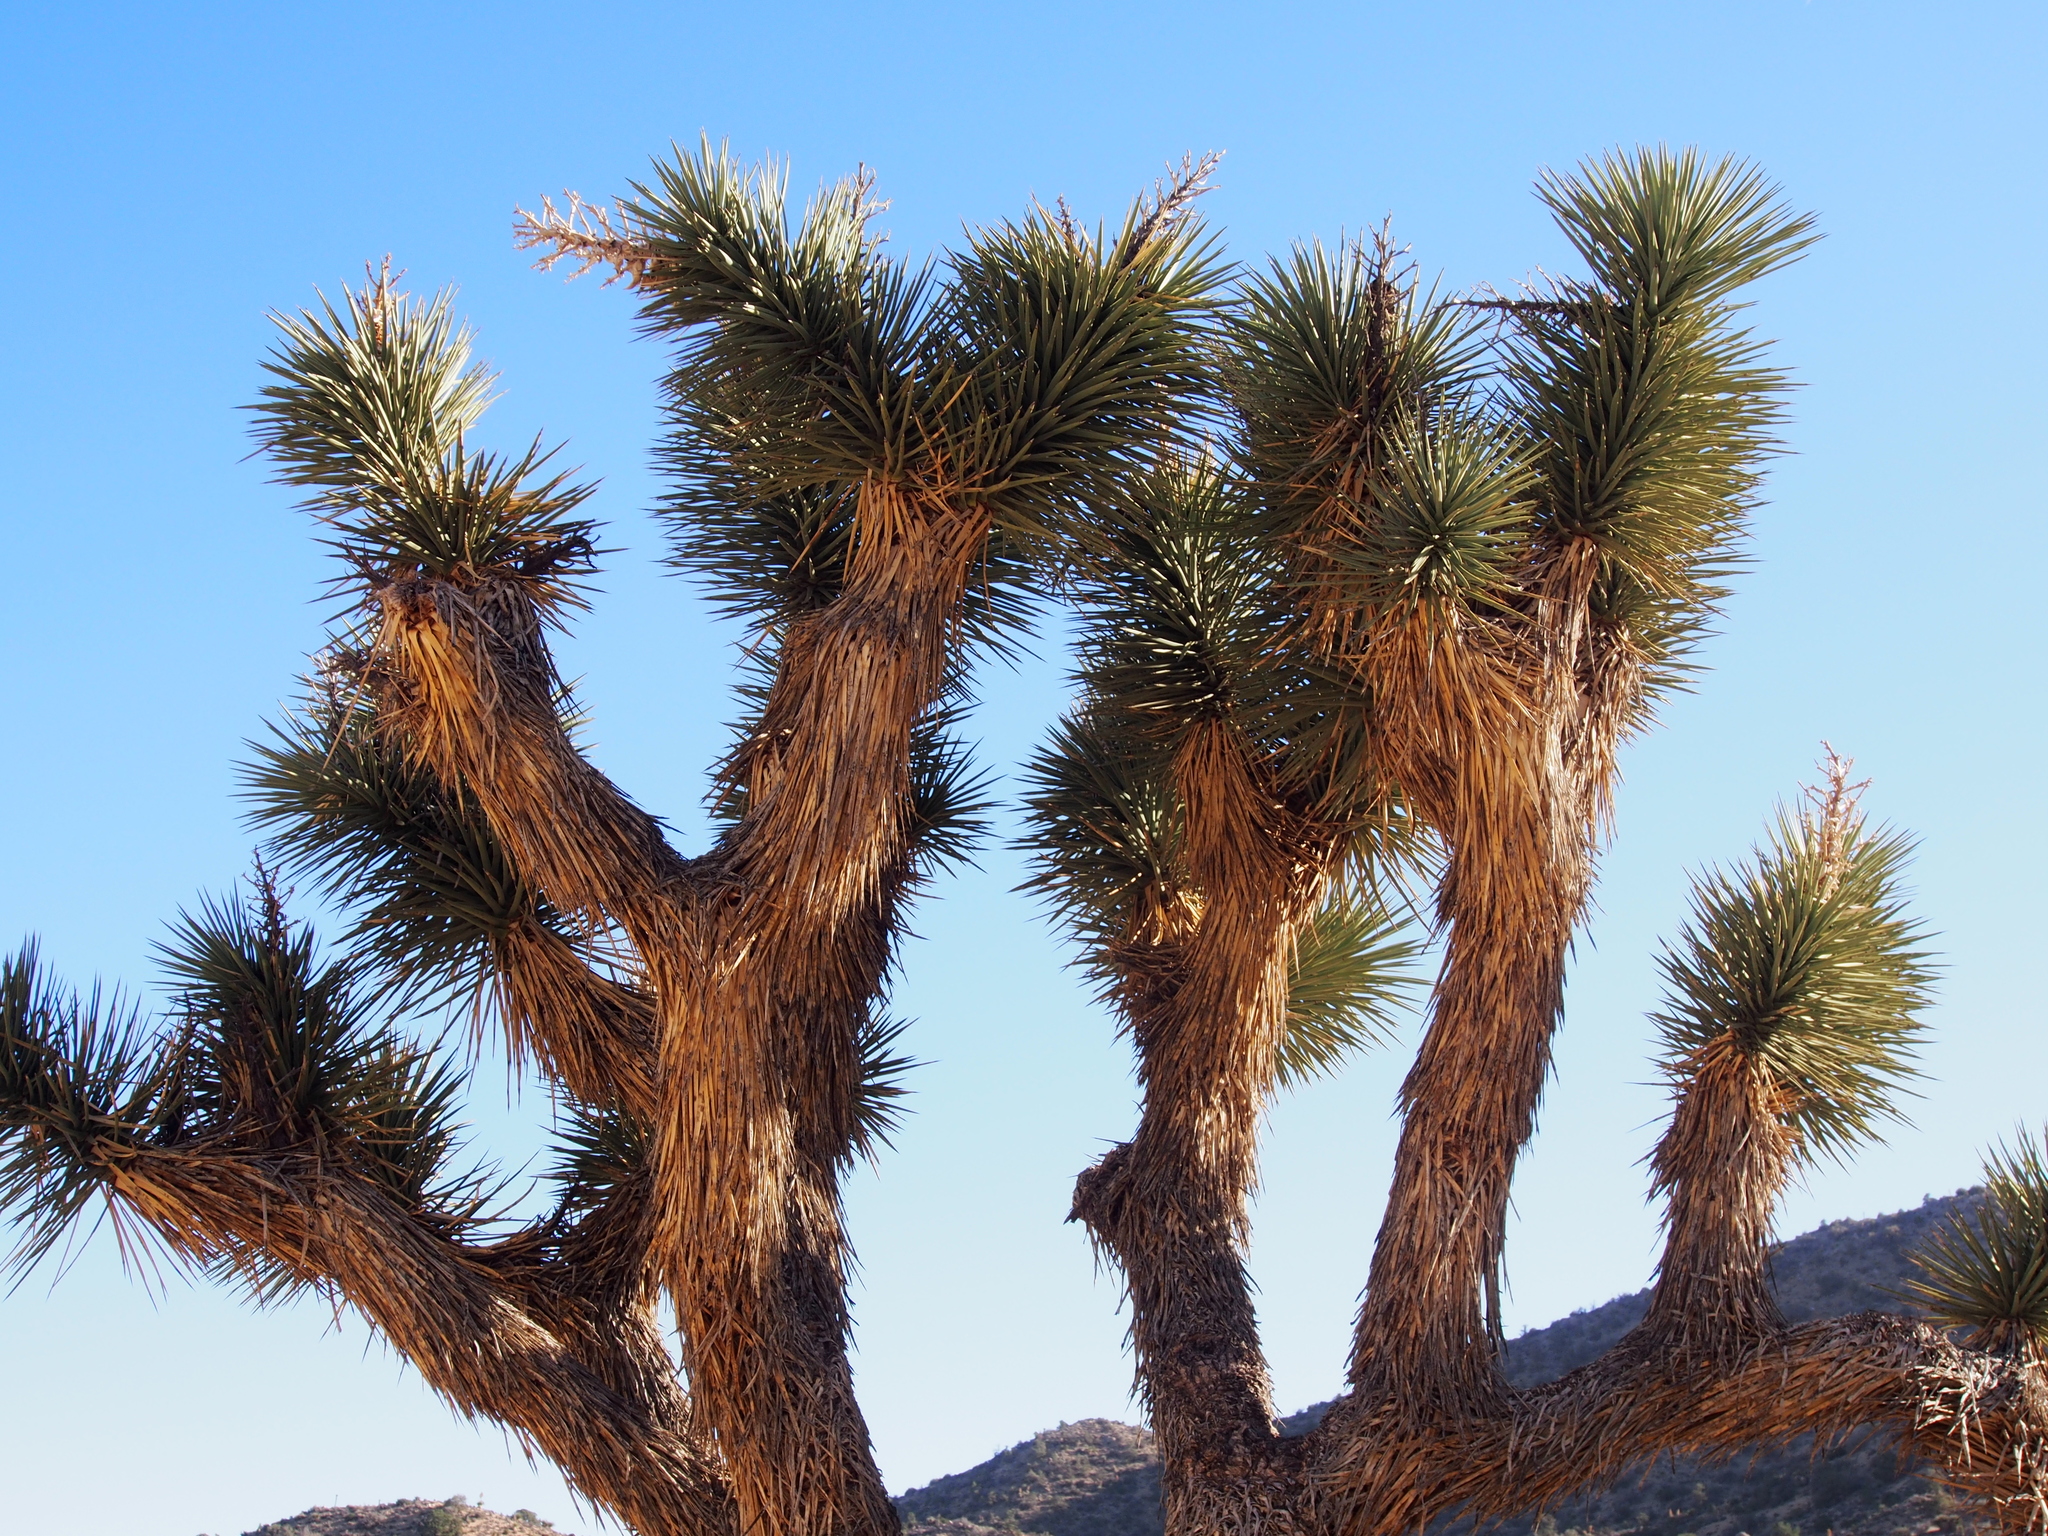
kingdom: Plantae
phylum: Tracheophyta
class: Liliopsida
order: Asparagales
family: Asparagaceae
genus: Yucca
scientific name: Yucca brevifolia
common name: Joshua tree
